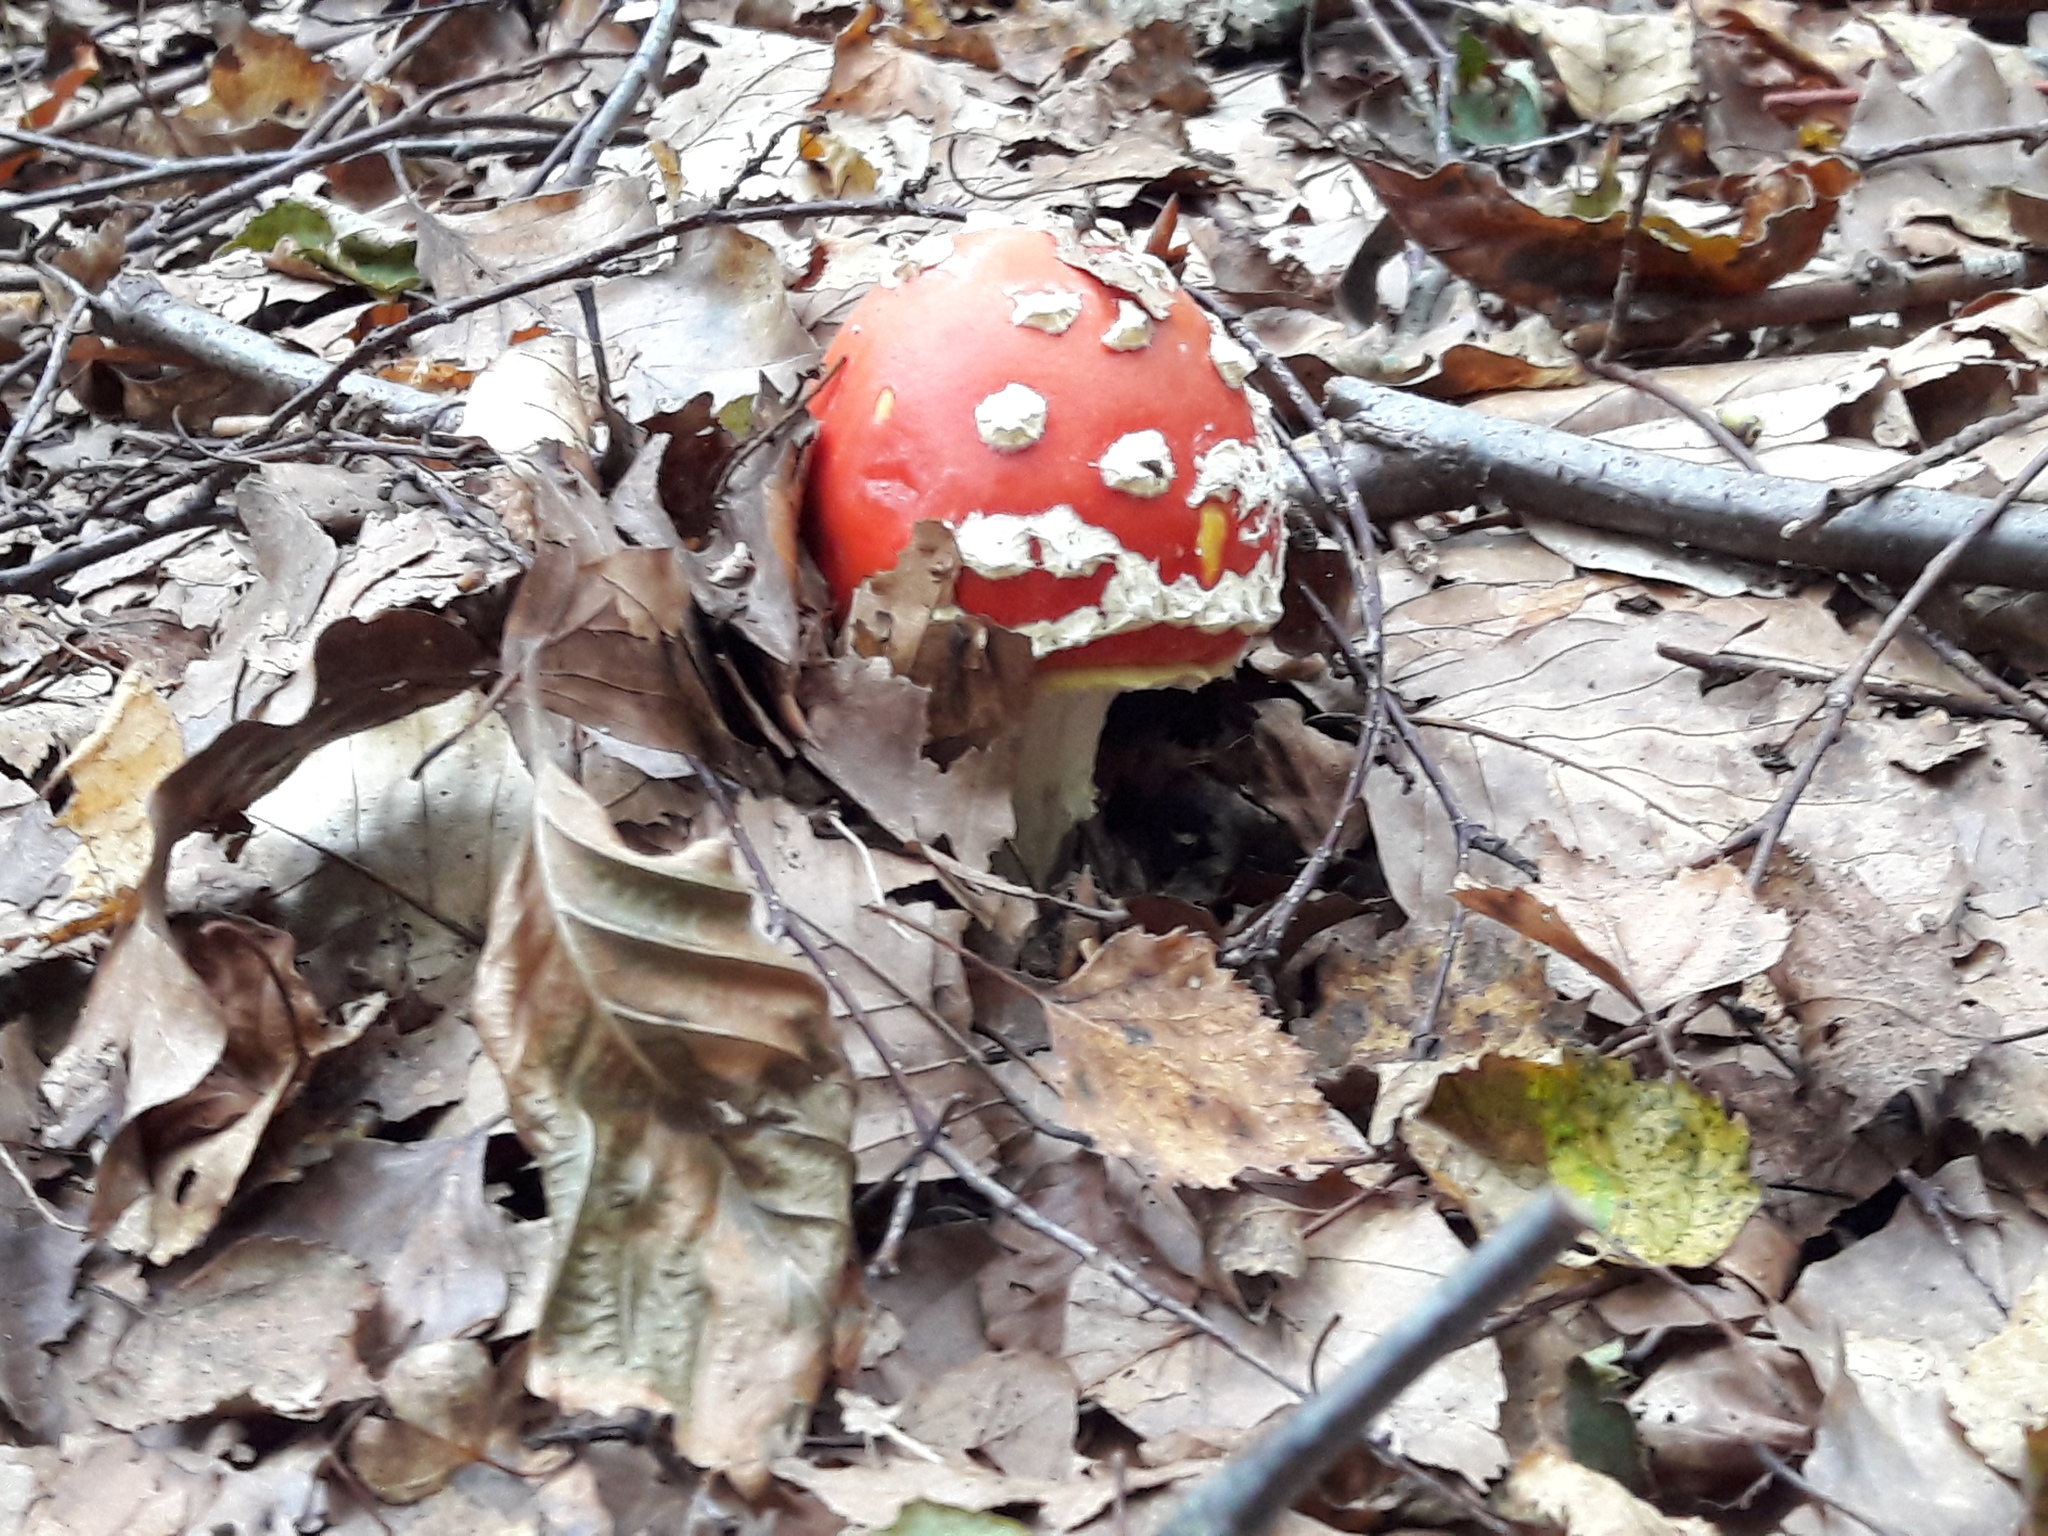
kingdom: Fungi
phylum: Basidiomycota
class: Agaricomycetes
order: Agaricales
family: Amanitaceae
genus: Amanita
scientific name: Amanita muscaria
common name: Fly agaric
